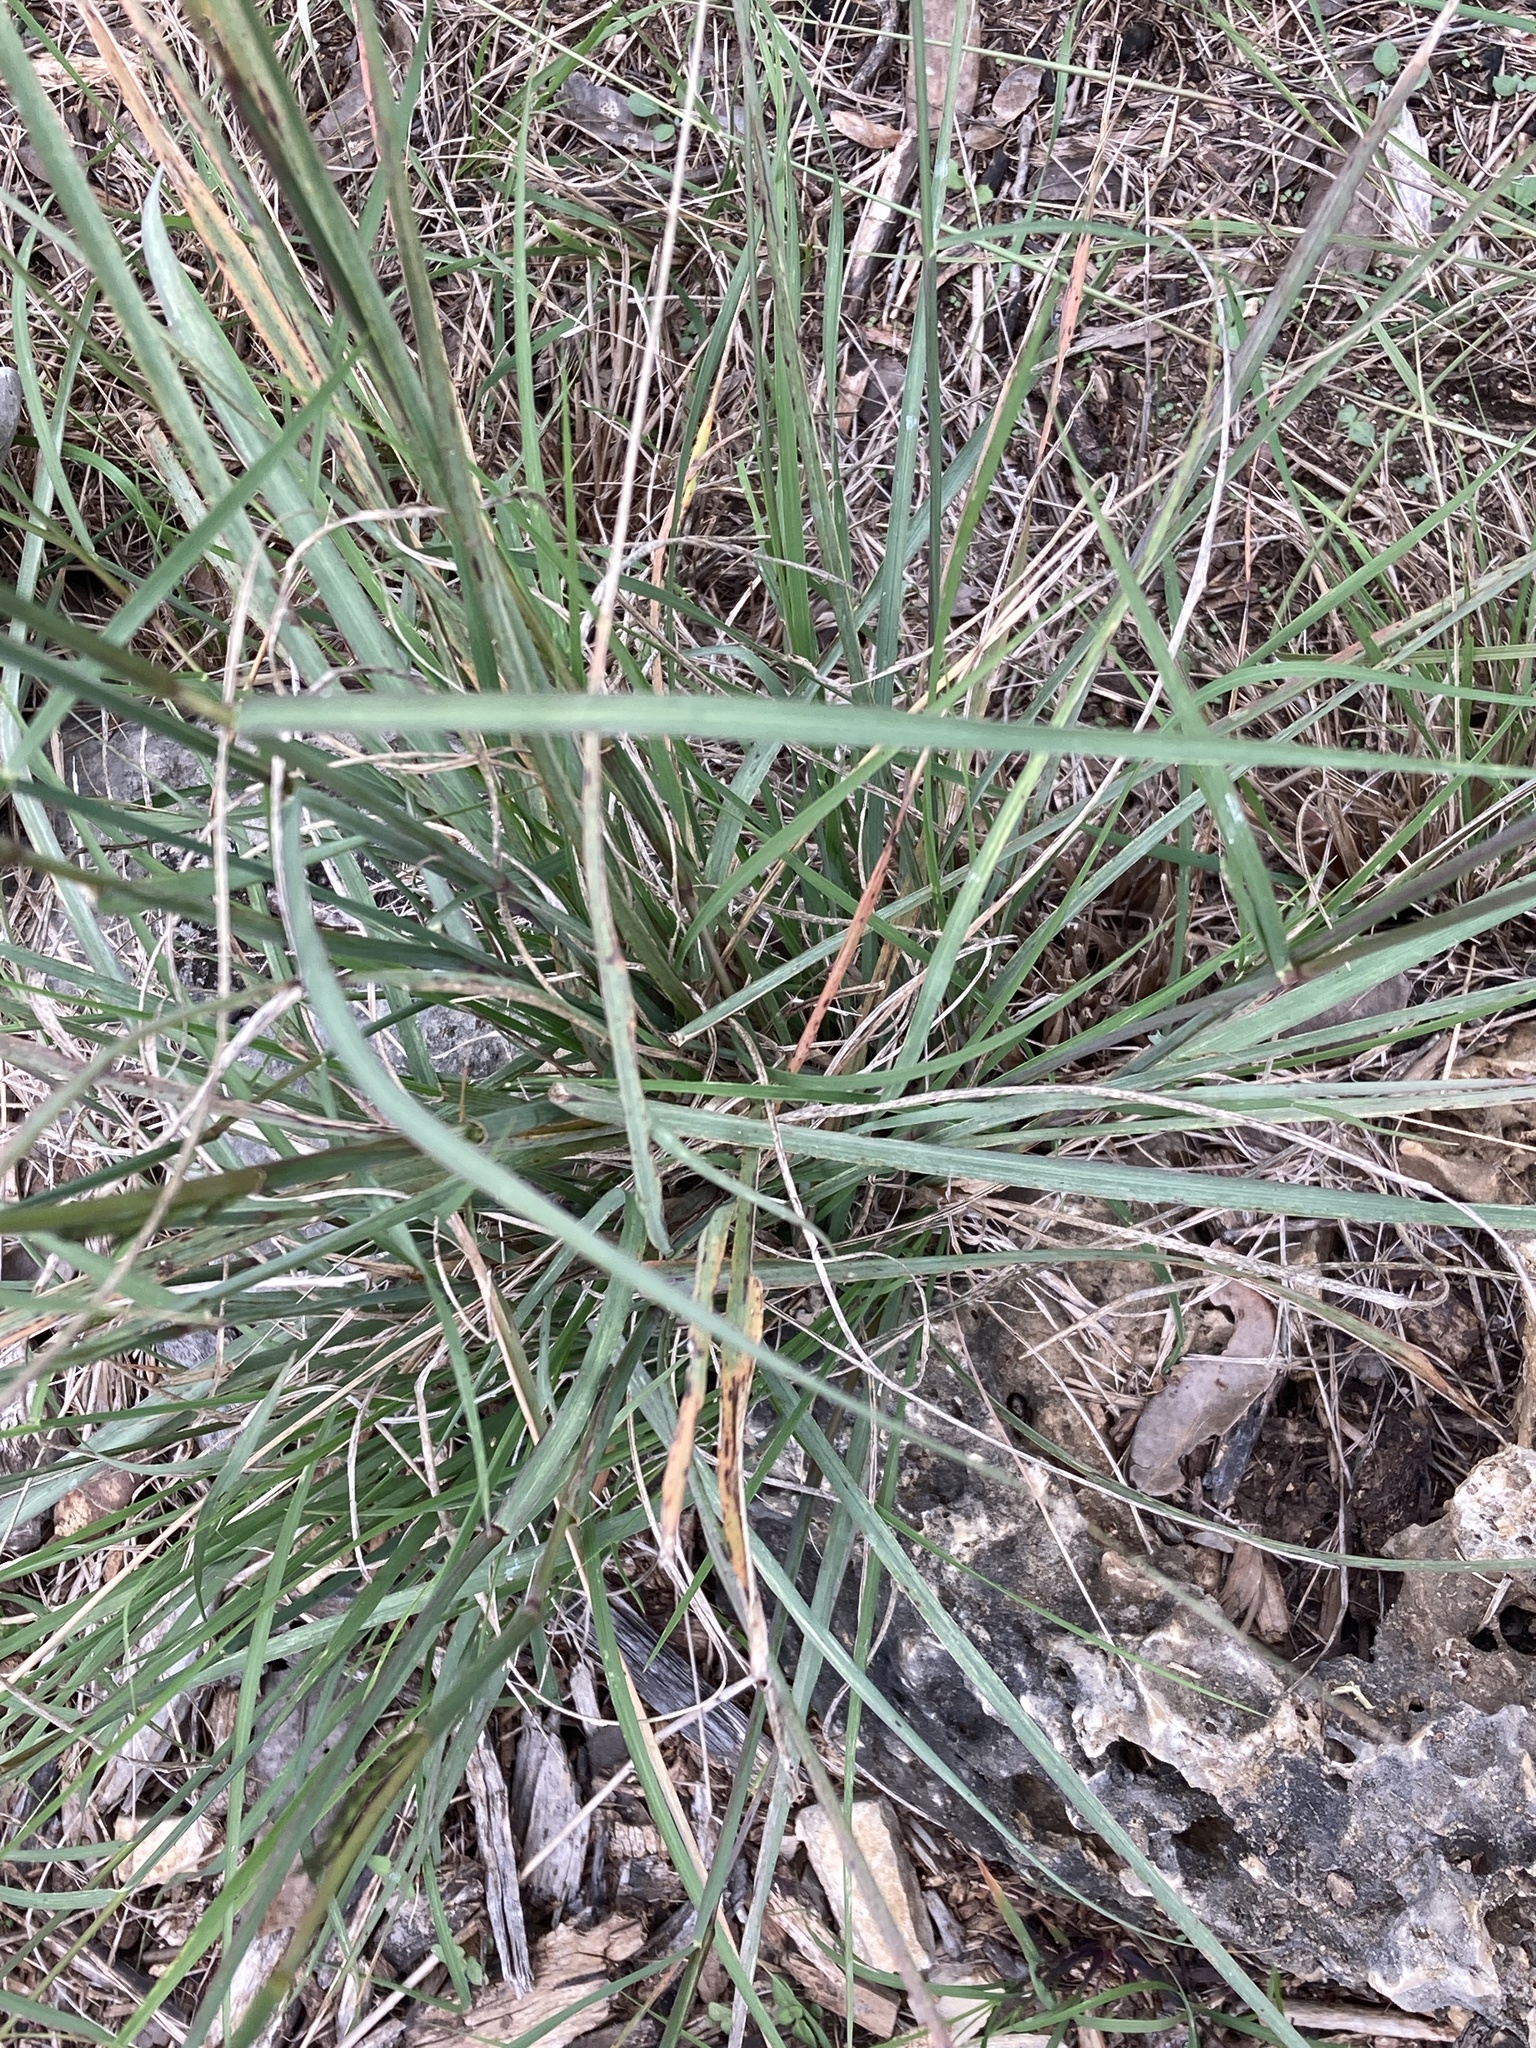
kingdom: Plantae
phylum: Tracheophyta
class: Liliopsida
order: Poales
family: Poaceae
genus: Disakisperma
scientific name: Disakisperma dubium
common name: Green sprangletop
